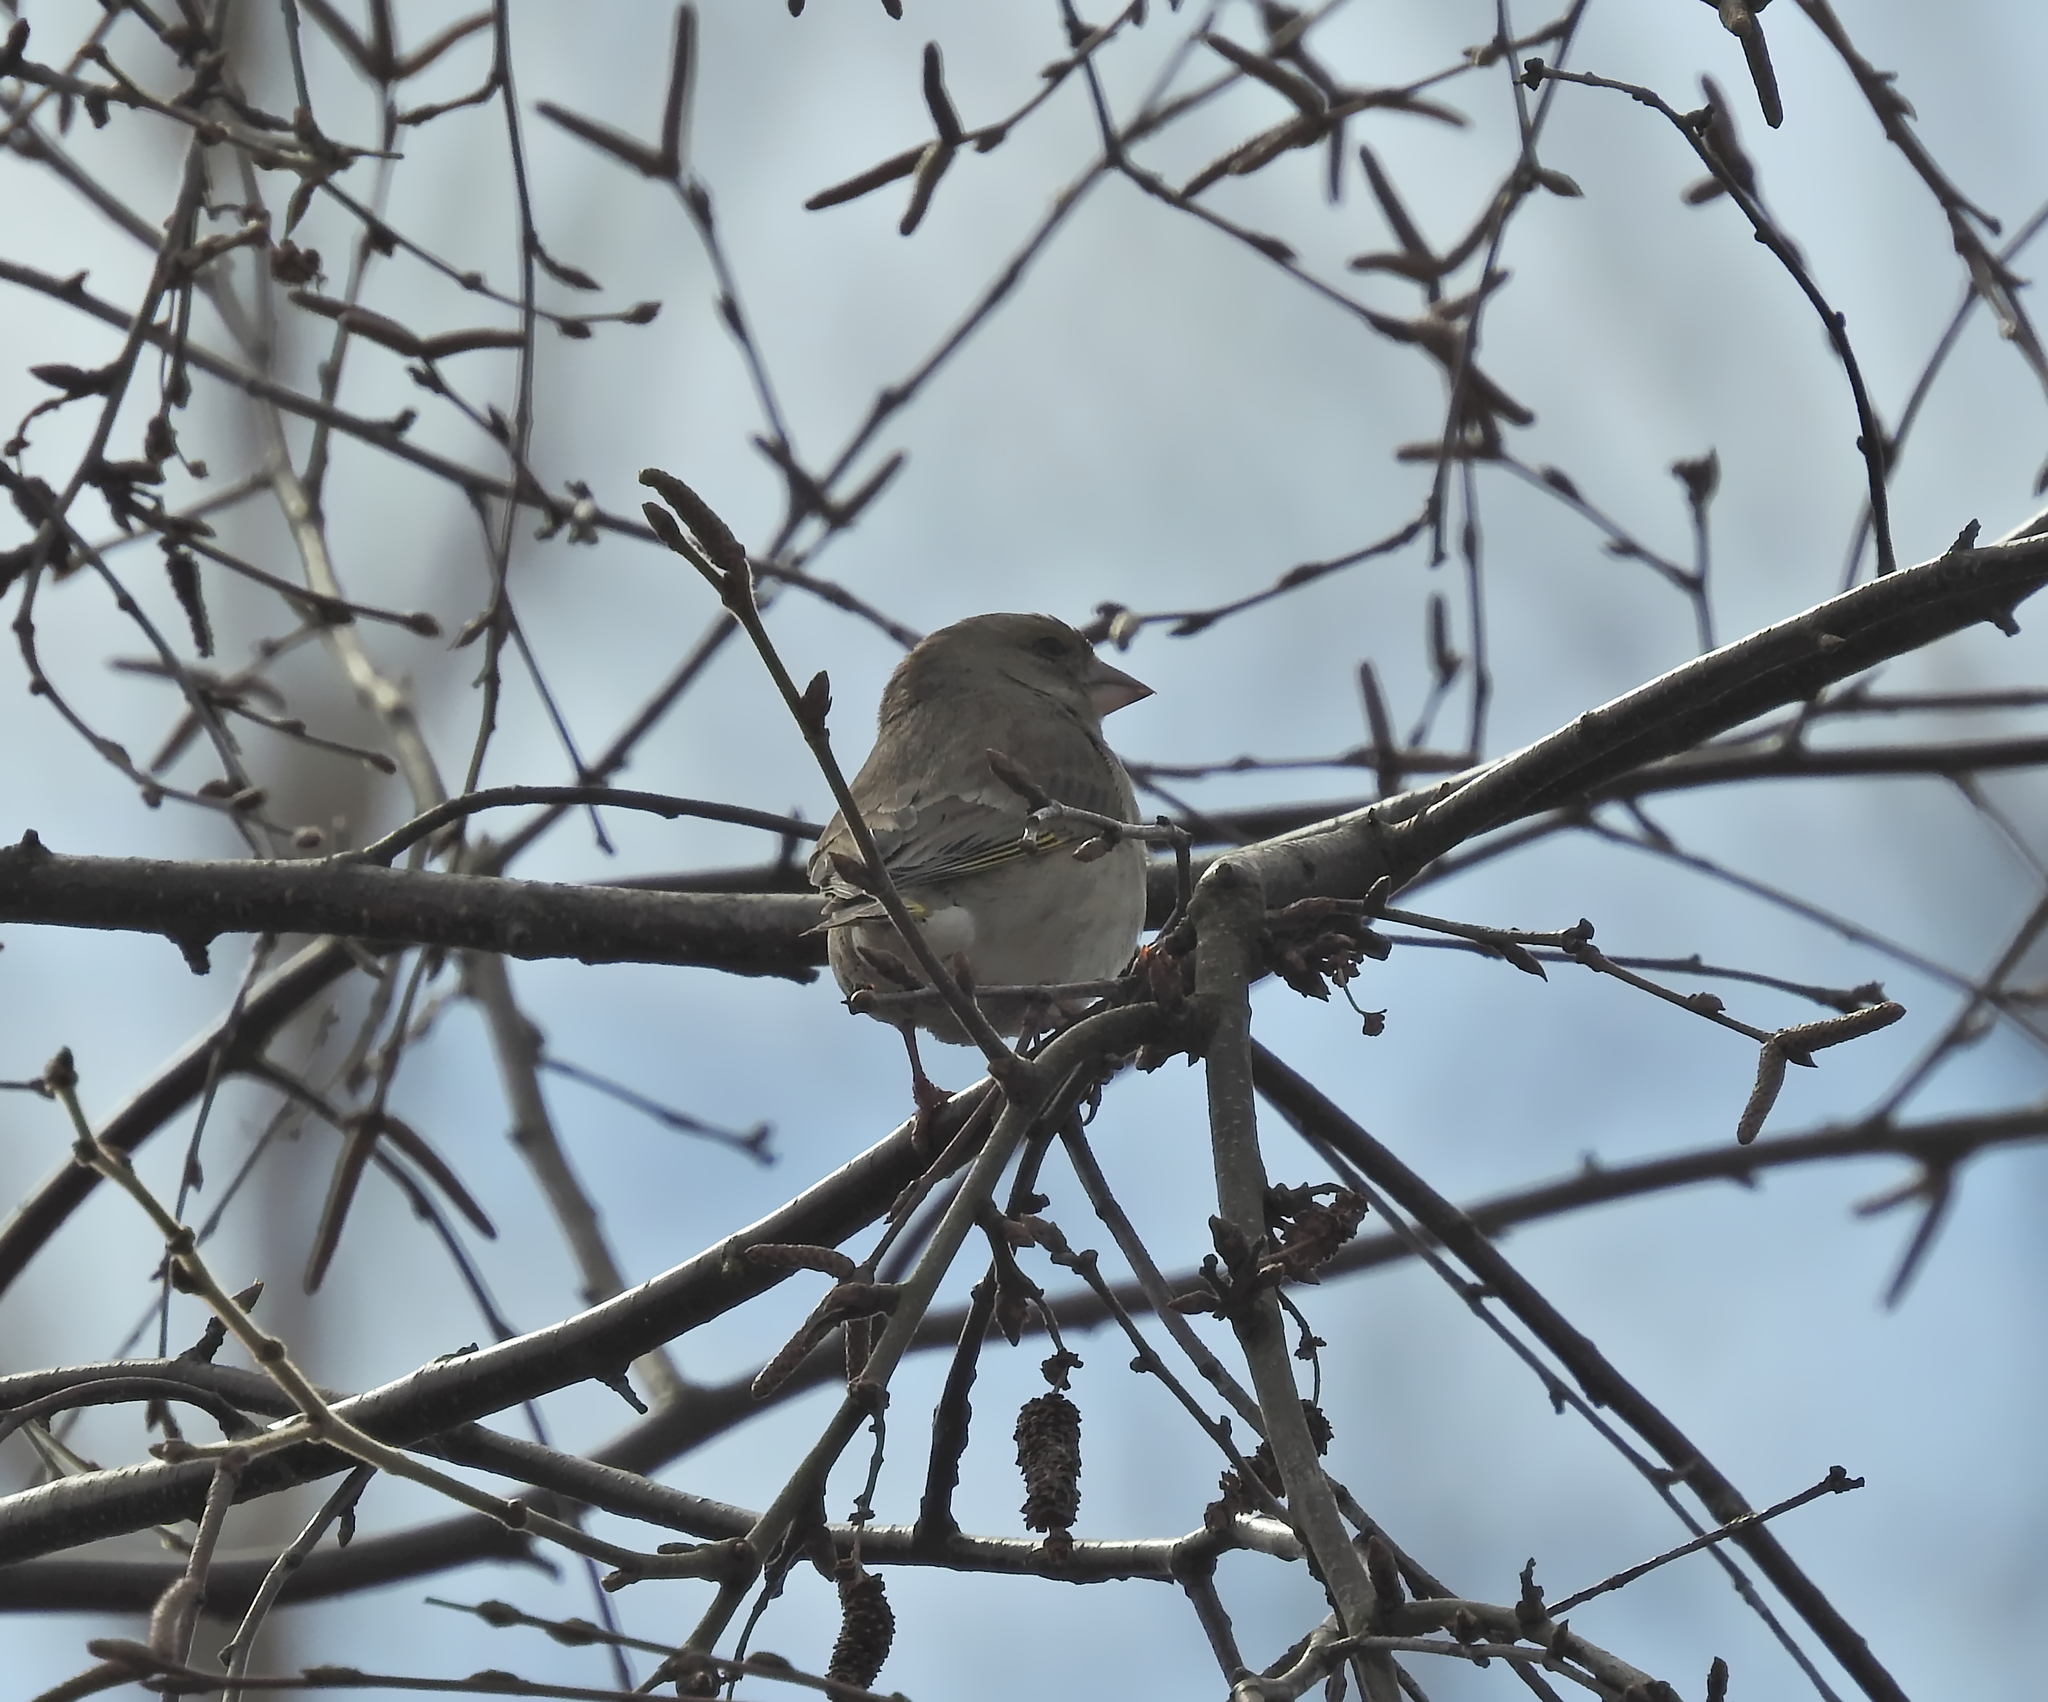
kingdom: Plantae
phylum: Tracheophyta
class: Liliopsida
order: Poales
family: Poaceae
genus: Chloris
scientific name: Chloris chloris
